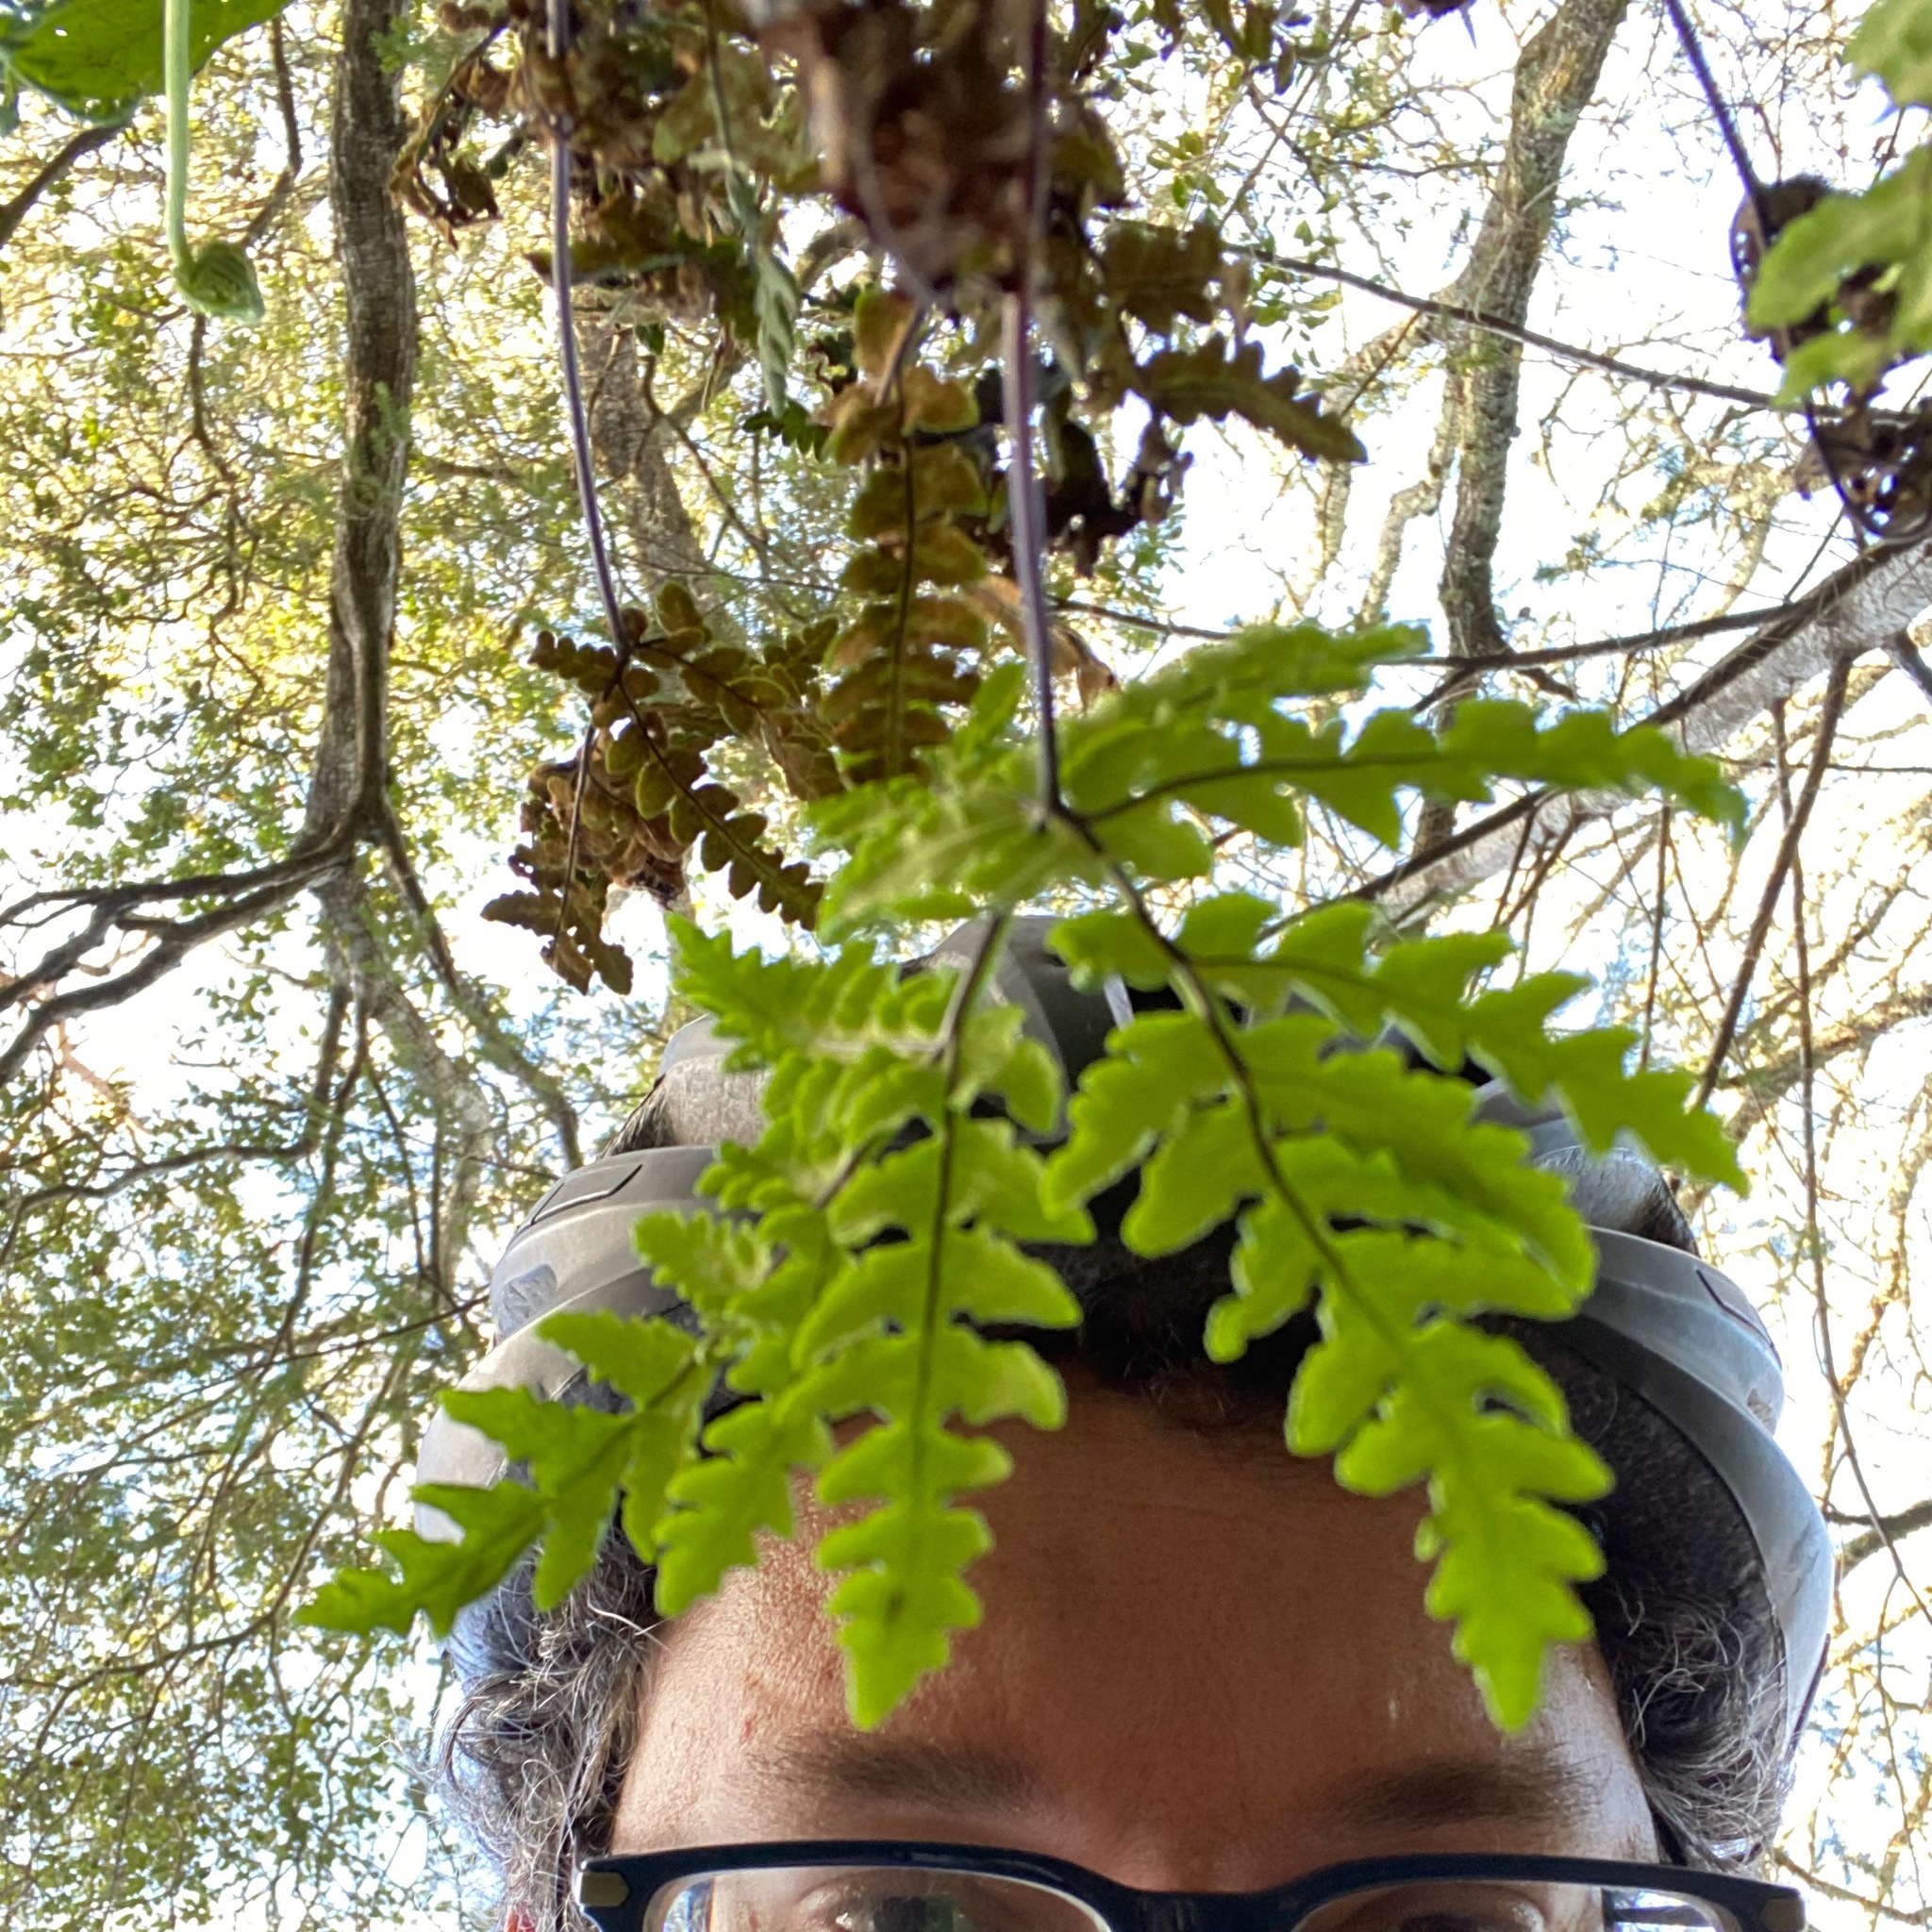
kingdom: Plantae
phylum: Tracheophyta
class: Polypodiopsida
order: Polypodiales
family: Pteridaceae
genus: Pentagramma
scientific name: Pentagramma triangularis
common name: Gold fern
